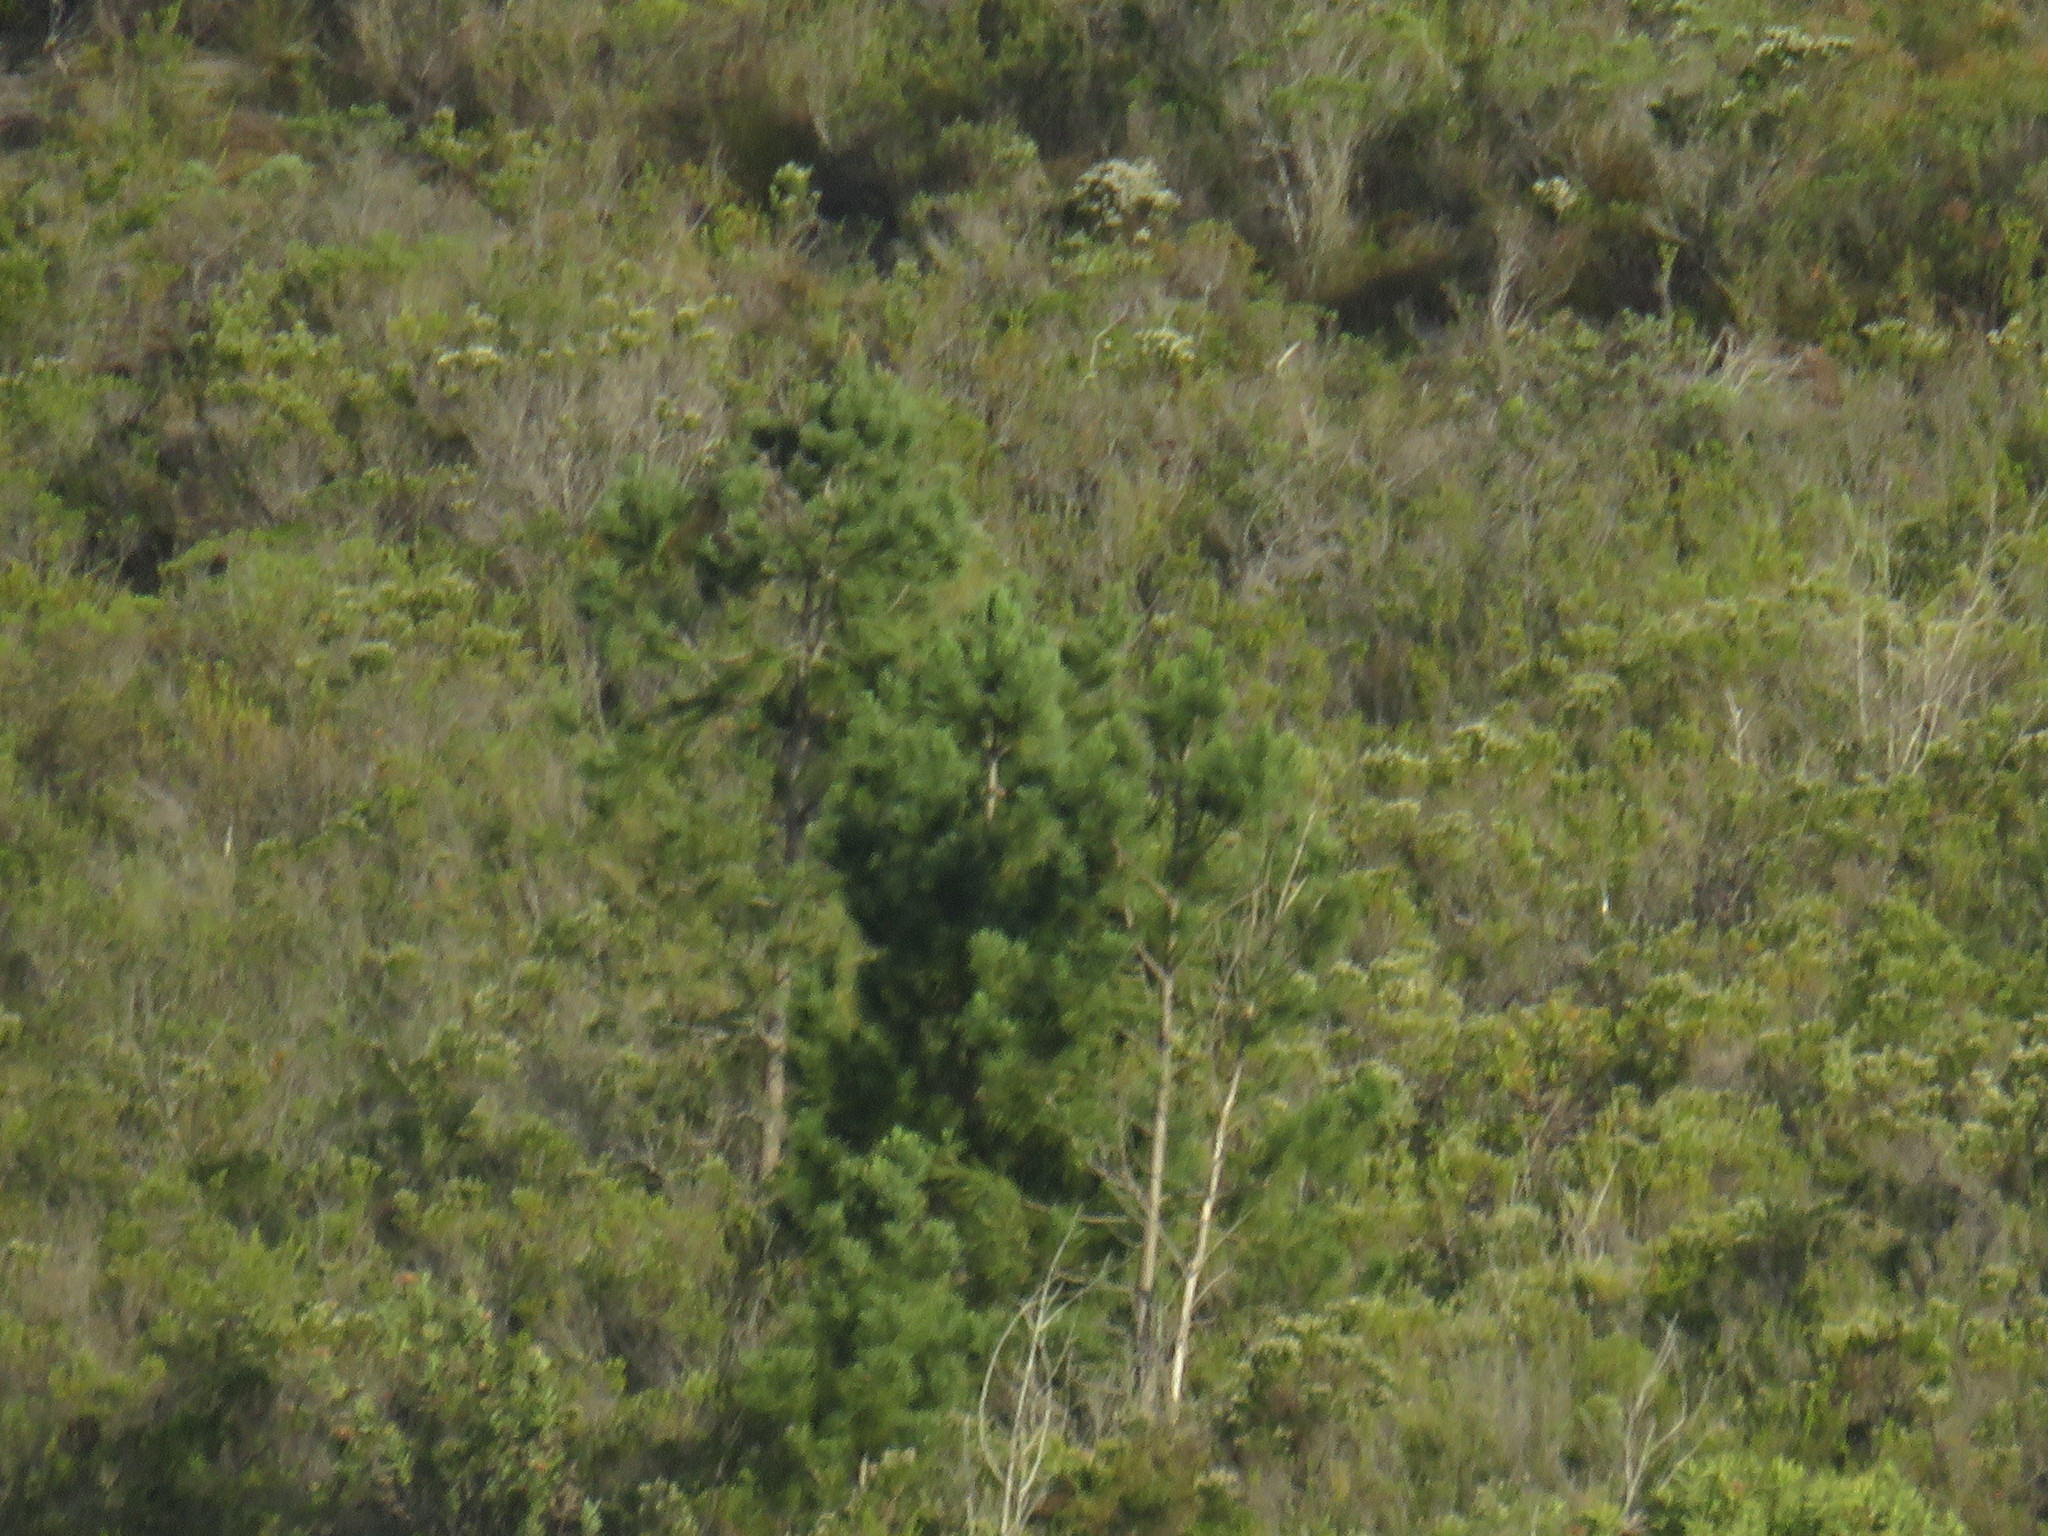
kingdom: Plantae
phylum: Tracheophyta
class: Pinopsida
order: Pinales
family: Pinaceae
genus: Pinus
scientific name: Pinus pinaster
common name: Maritime pine
